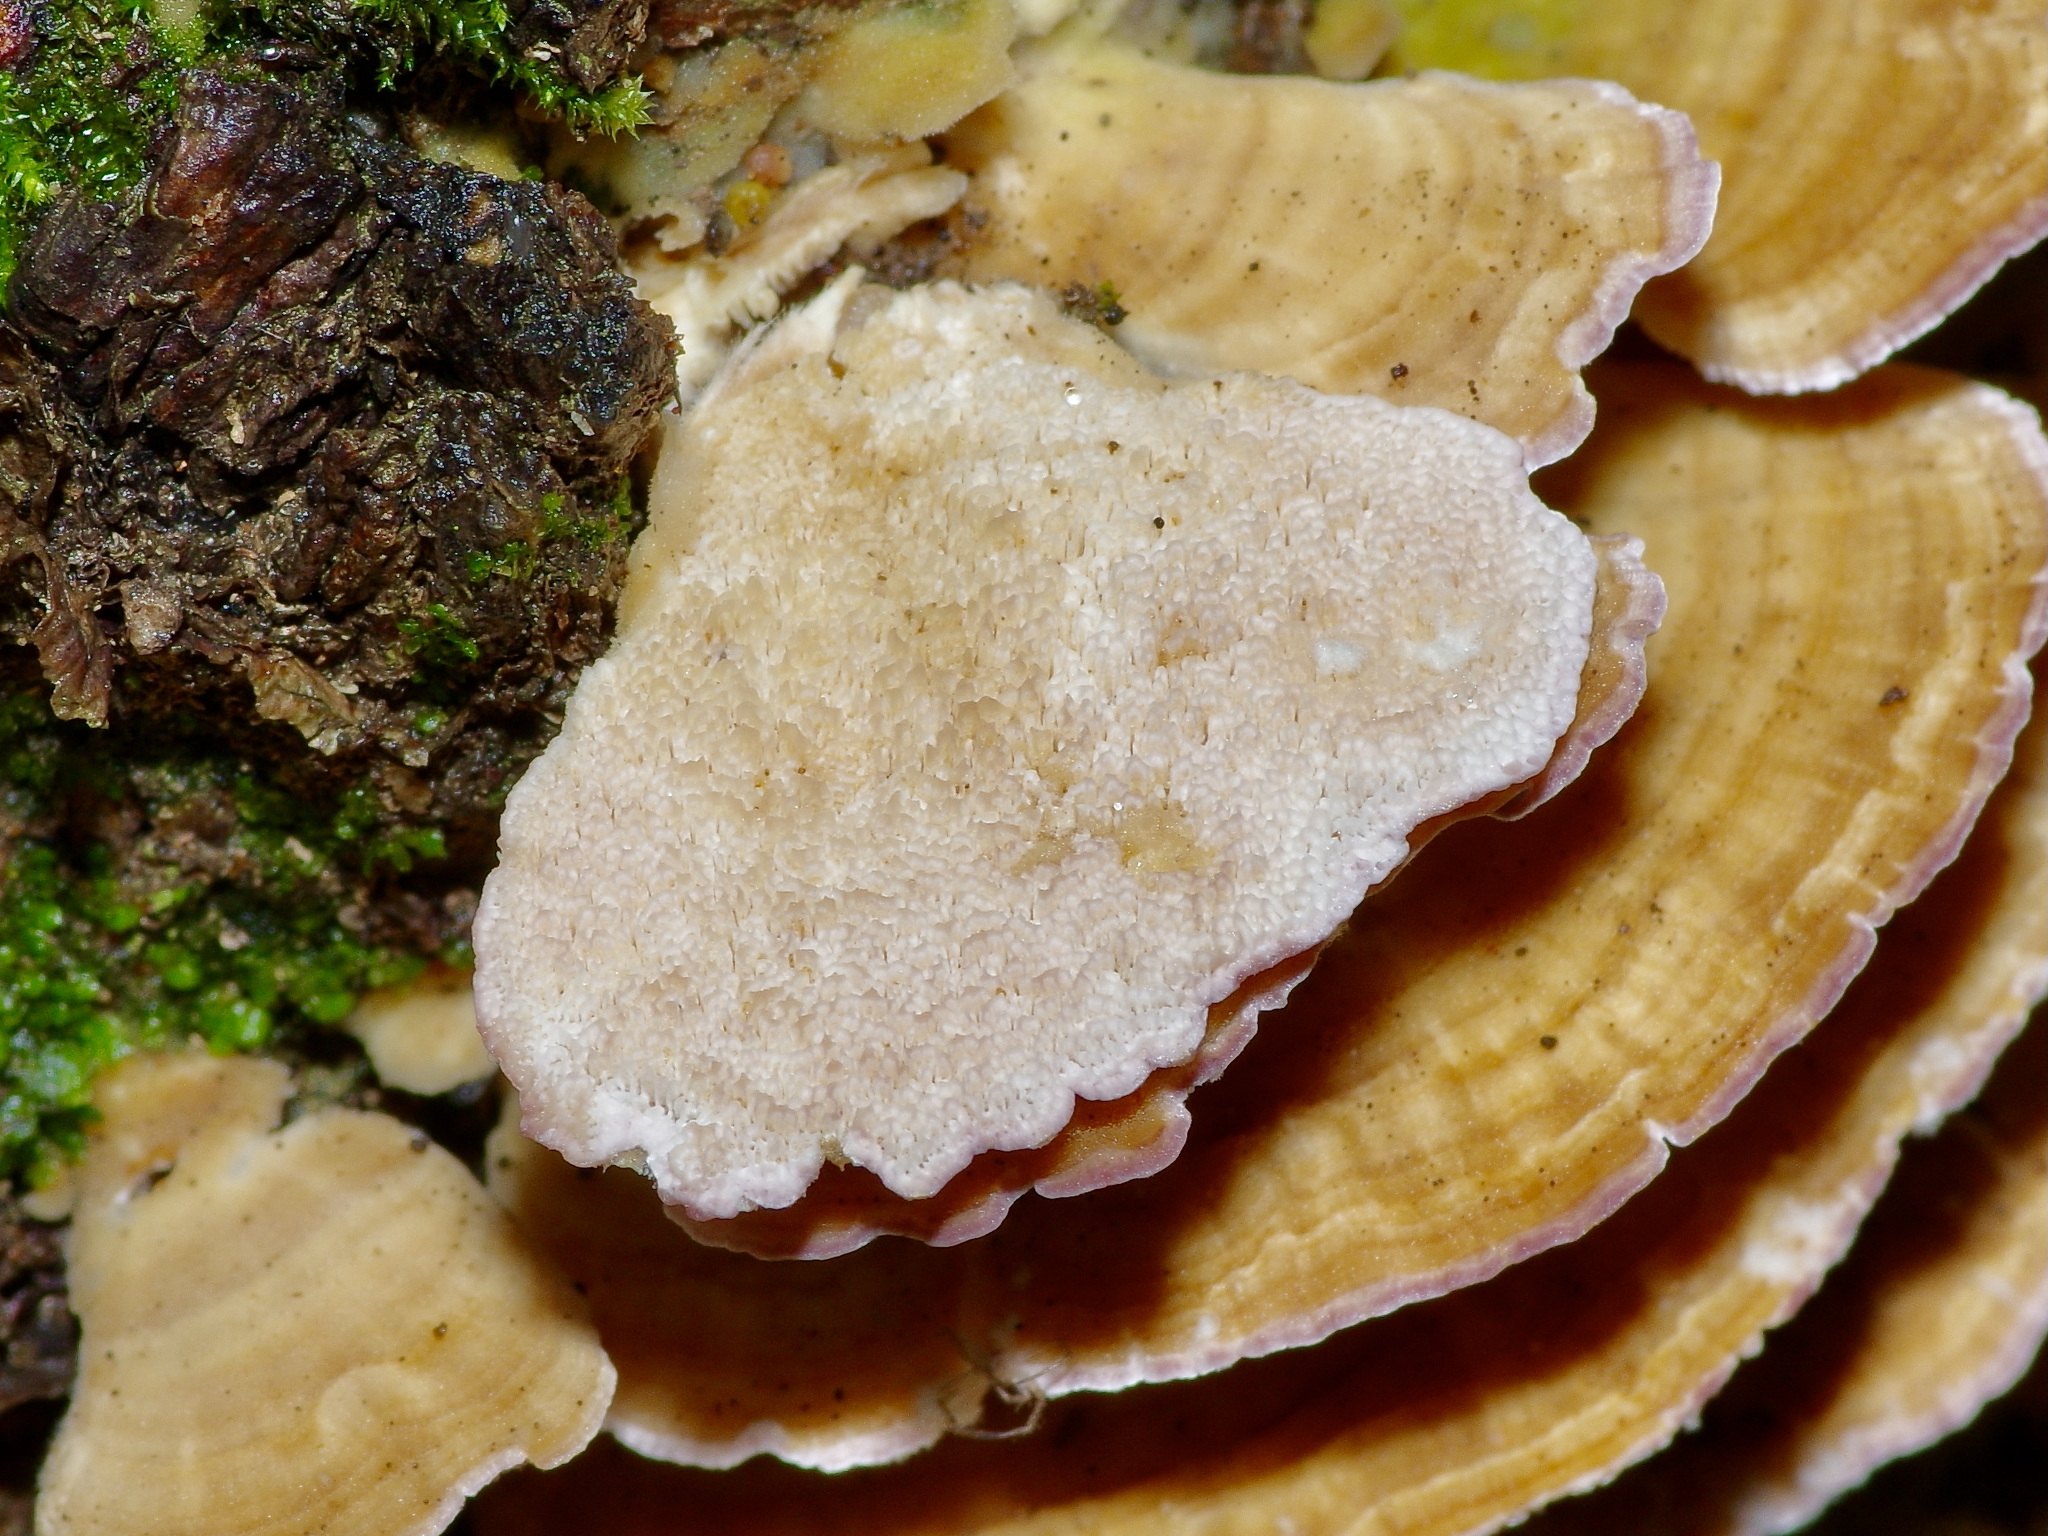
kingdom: Fungi
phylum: Basidiomycota
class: Agaricomycetes
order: Hymenochaetales
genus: Trichaptum
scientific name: Trichaptum biforme
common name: Violet-toothed polypore
